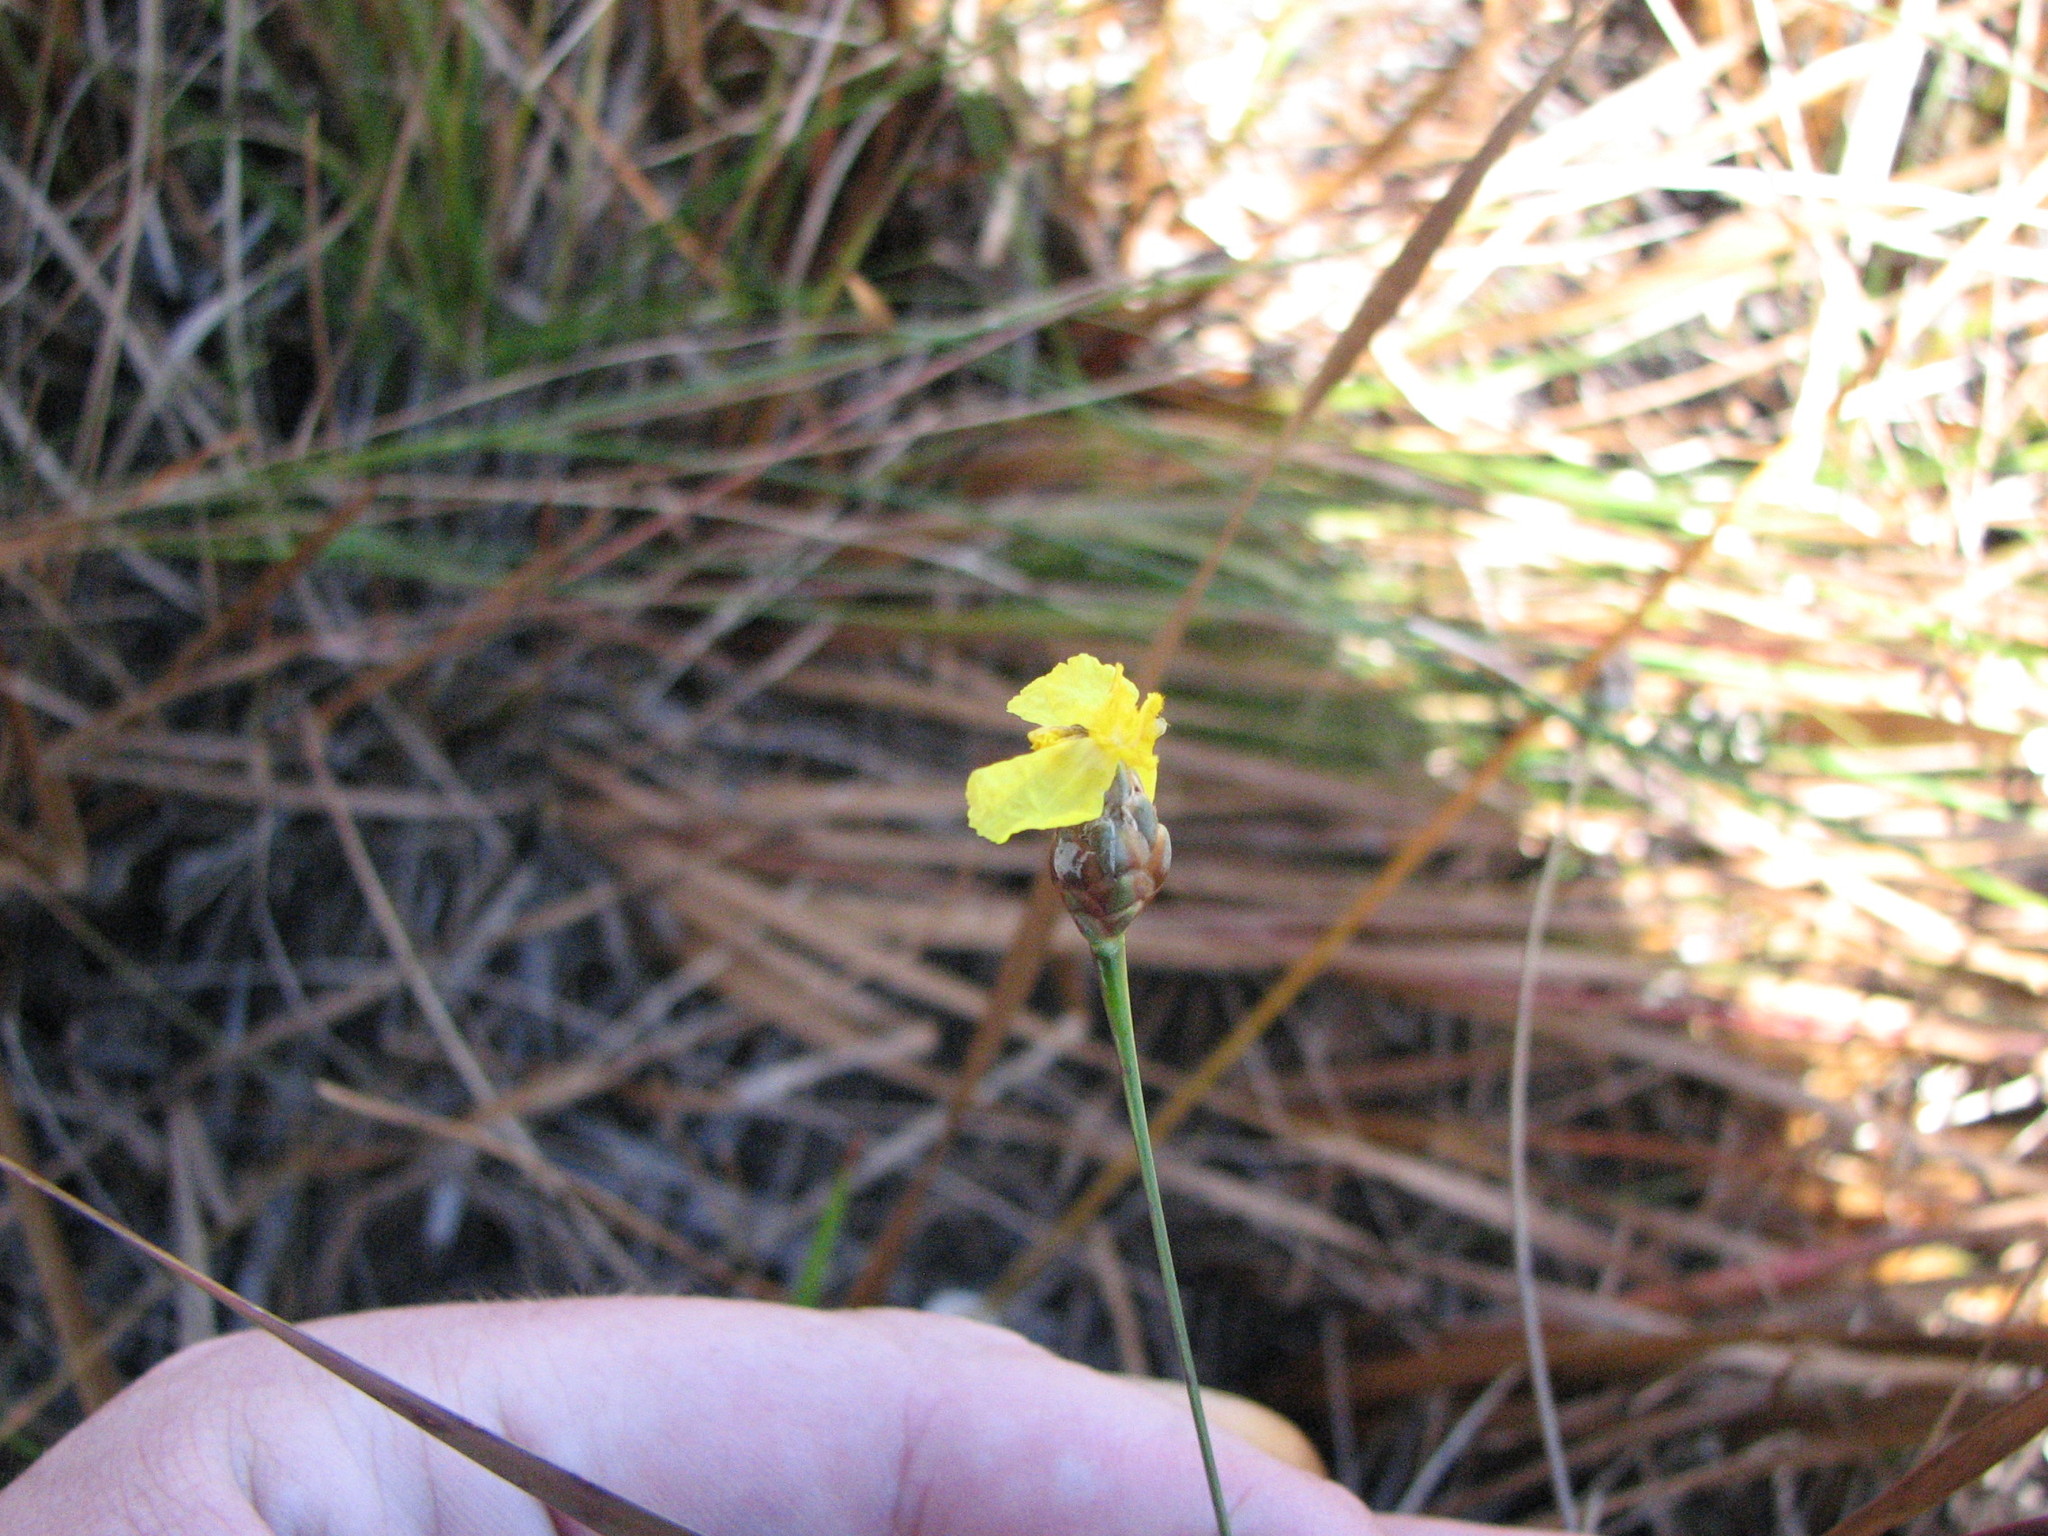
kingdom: Plantae
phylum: Tracheophyta
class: Liliopsida
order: Poales
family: Xyridaceae
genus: Xyris
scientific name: Xyris smalliana
